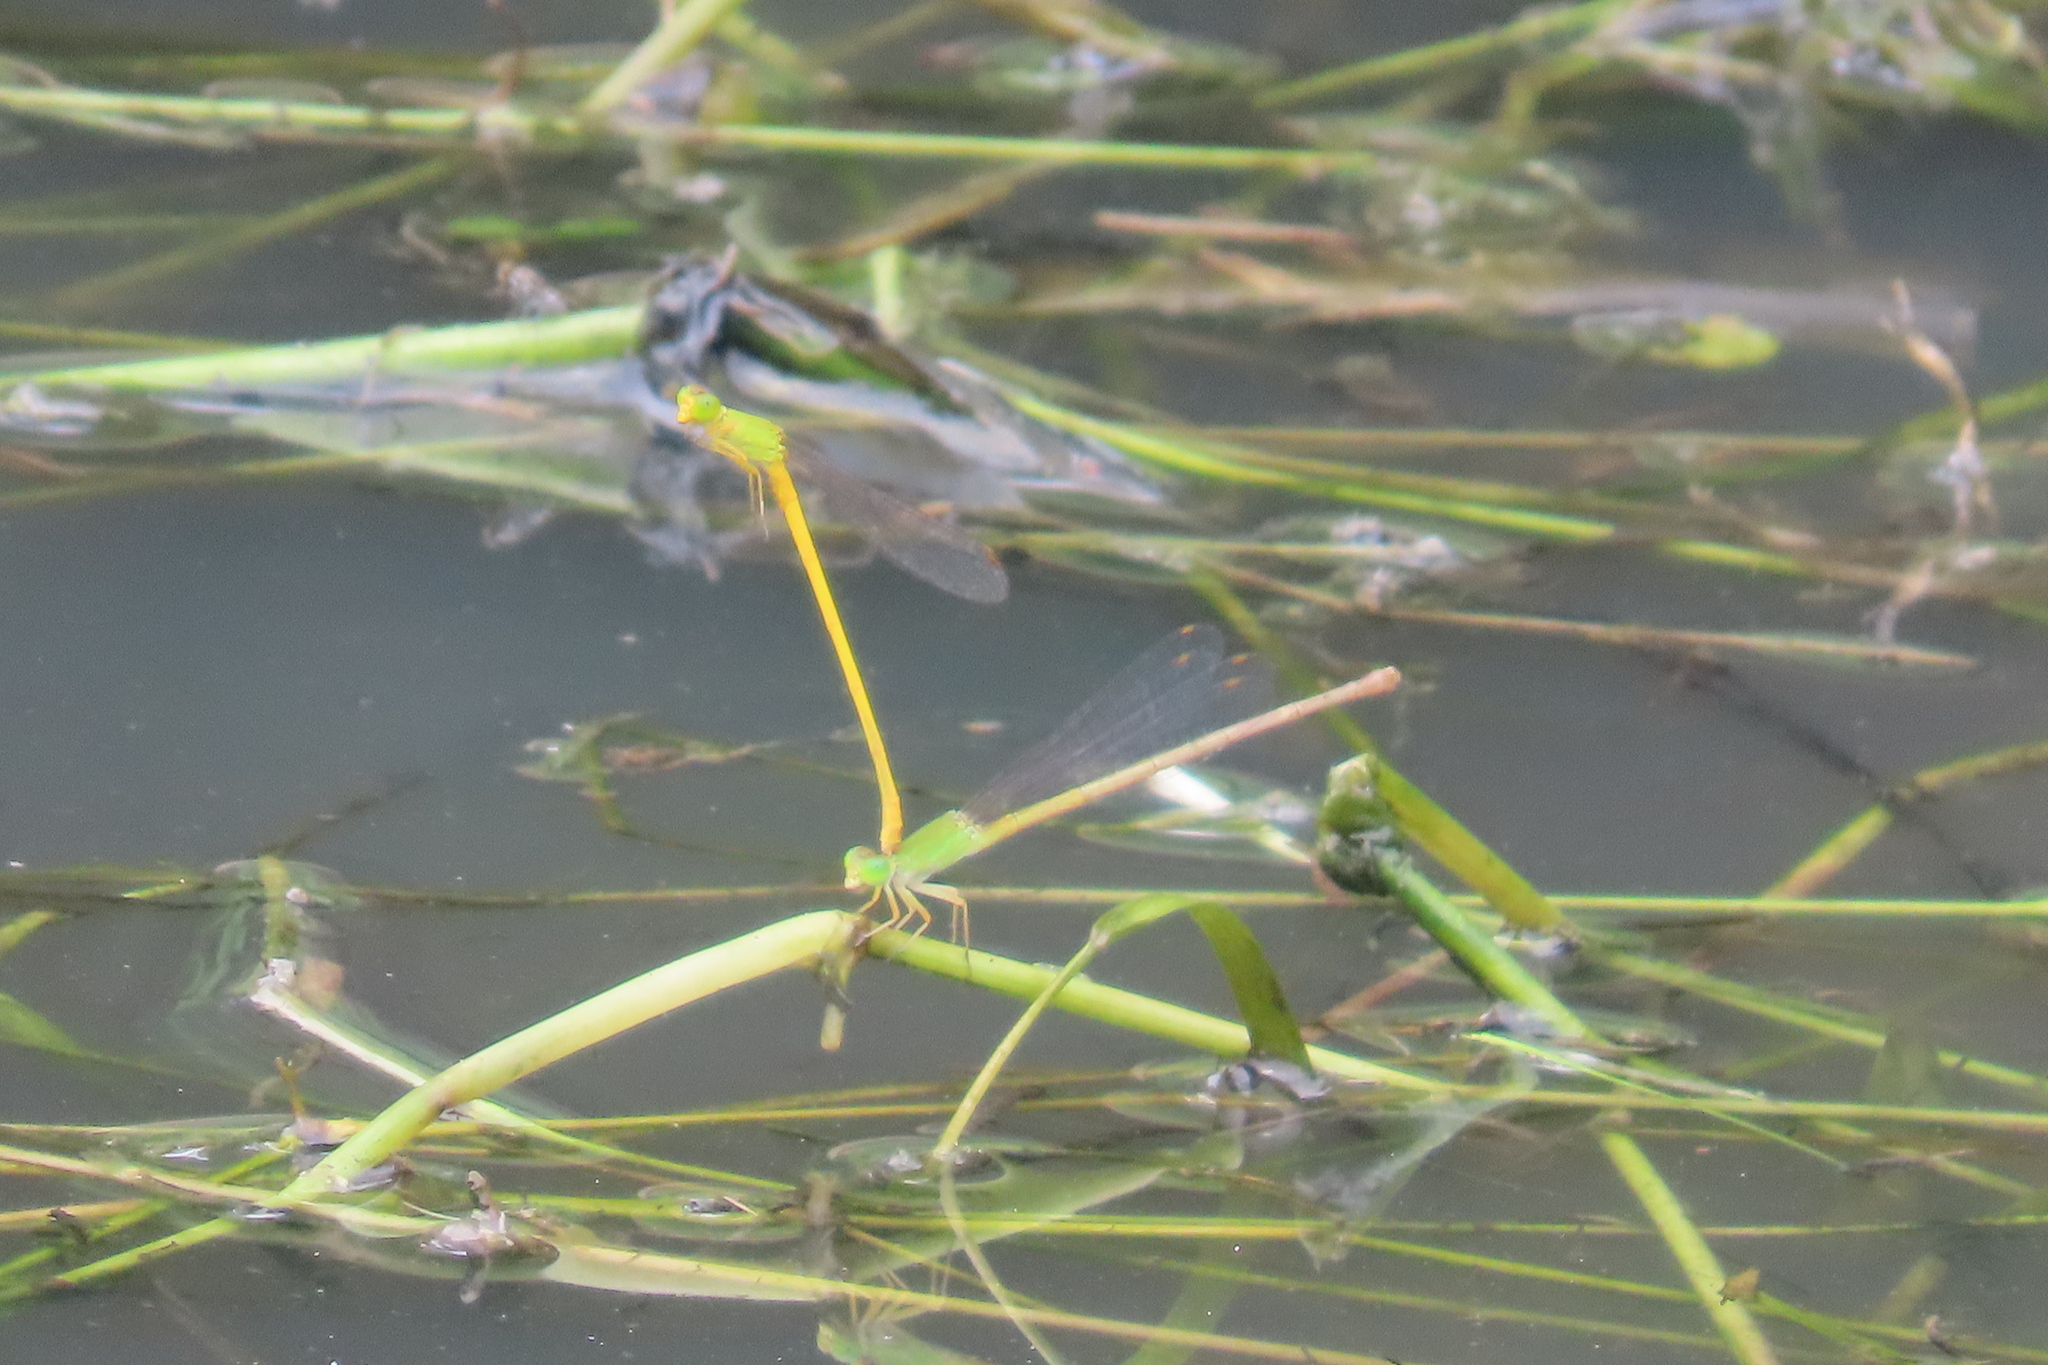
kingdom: Animalia
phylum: Arthropoda
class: Insecta
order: Odonata
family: Coenagrionidae
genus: Ceriagrion
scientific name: Ceriagrion coromandelianum
